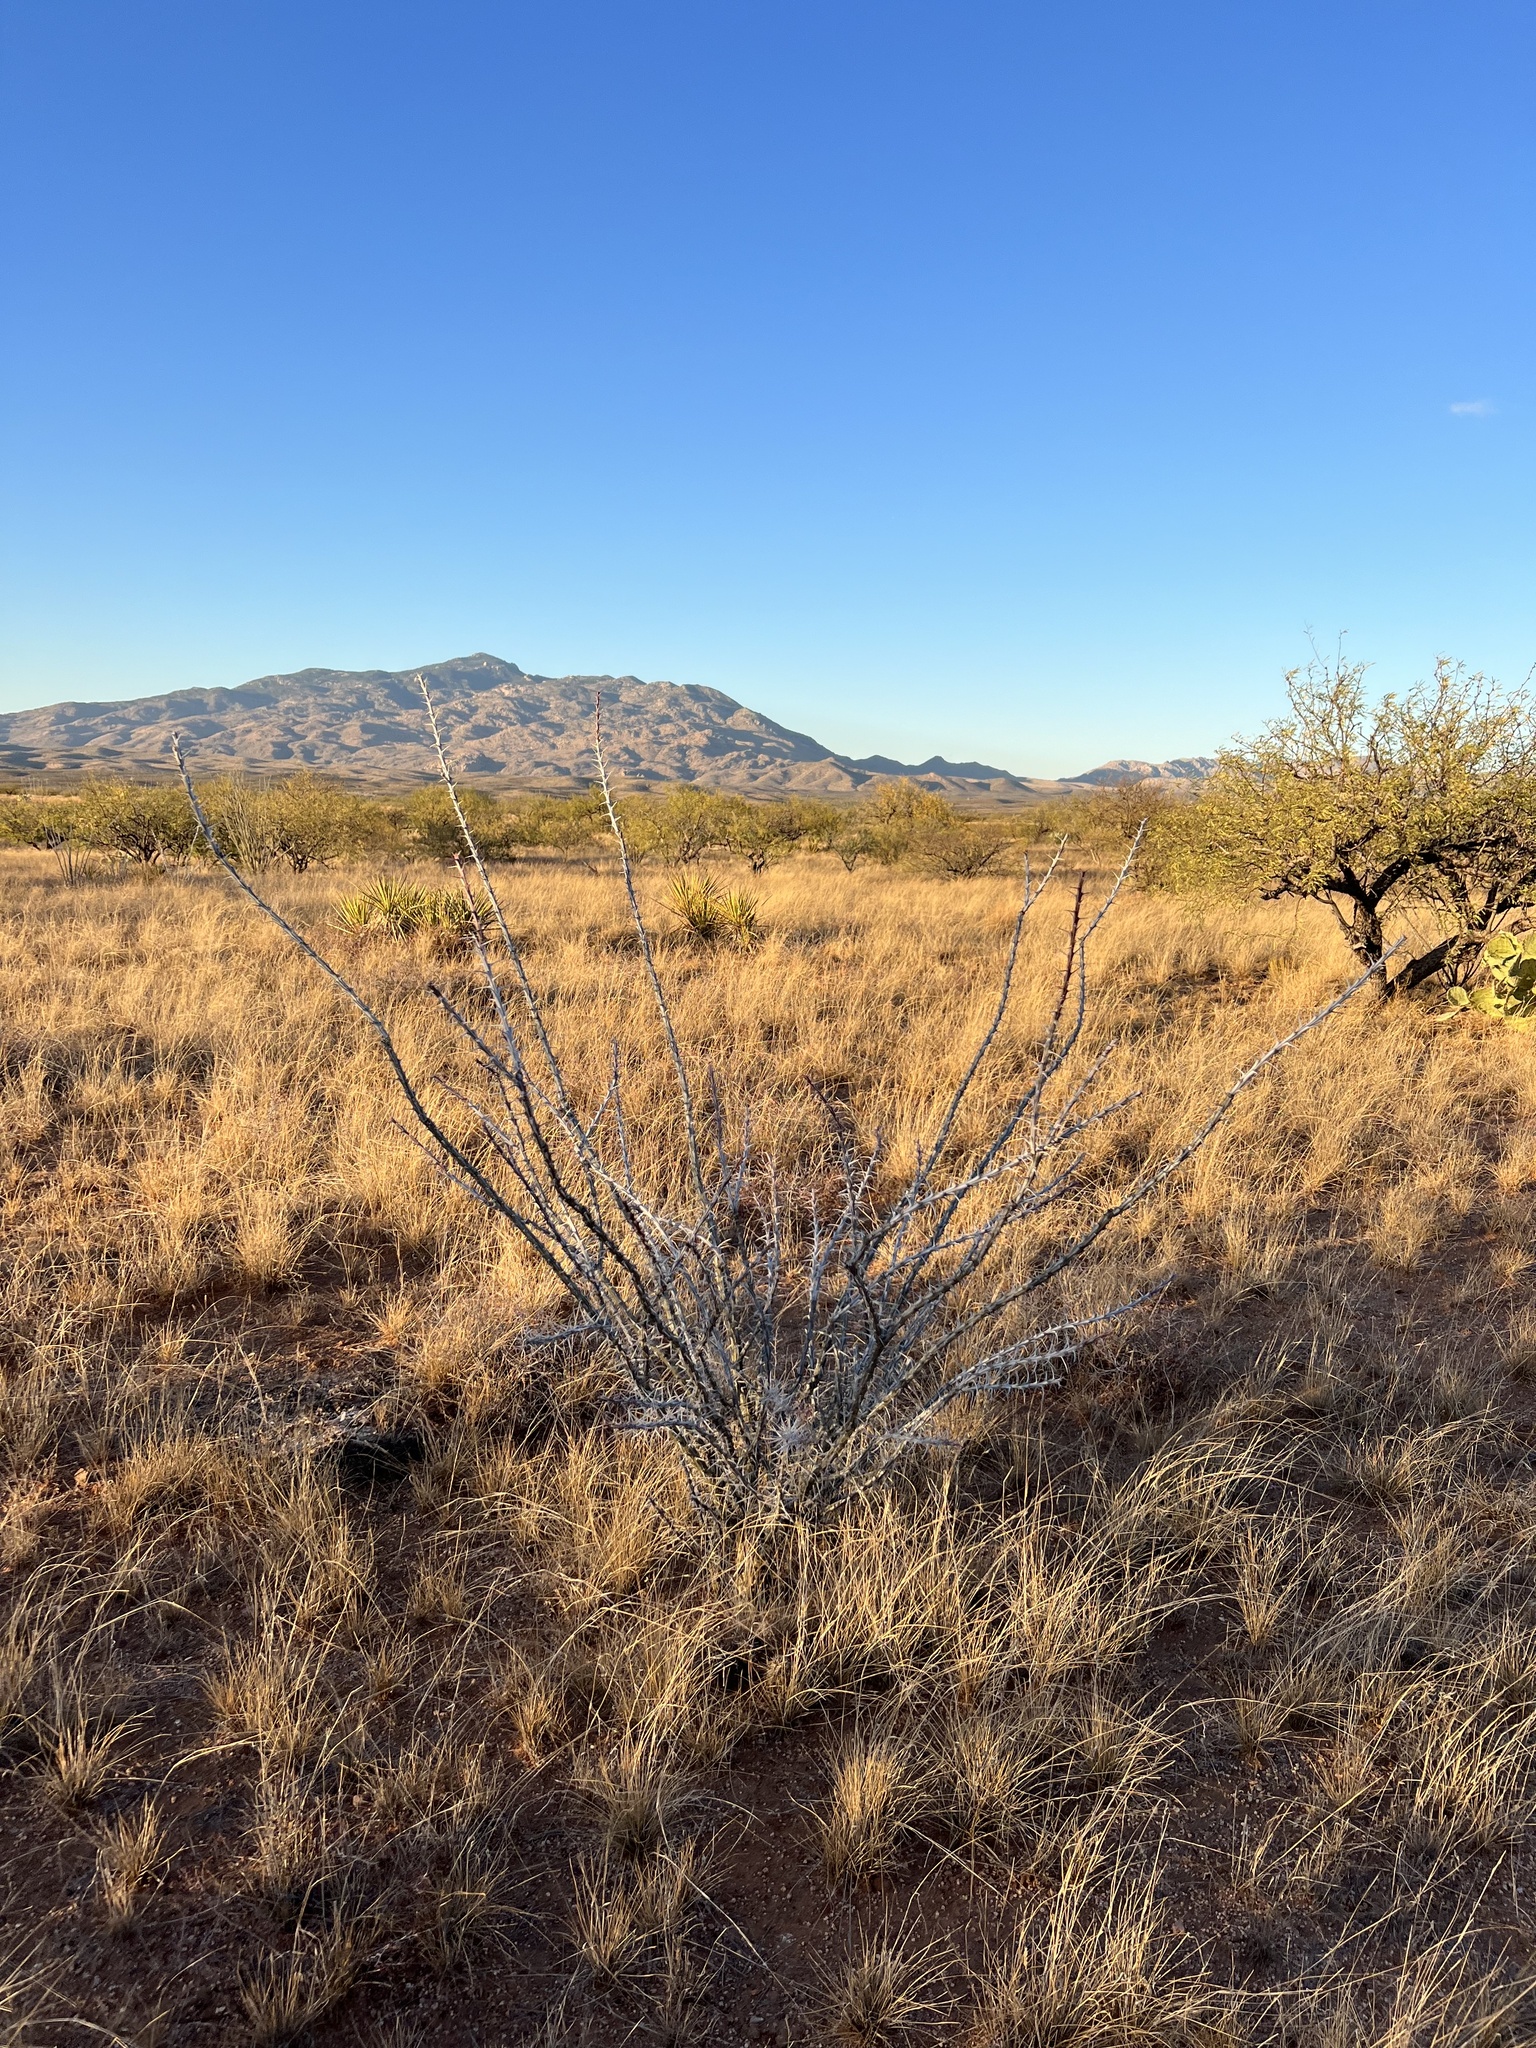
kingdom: Plantae
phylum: Tracheophyta
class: Magnoliopsida
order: Ericales
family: Fouquieriaceae
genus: Fouquieria
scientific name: Fouquieria splendens
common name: Vine-cactus
